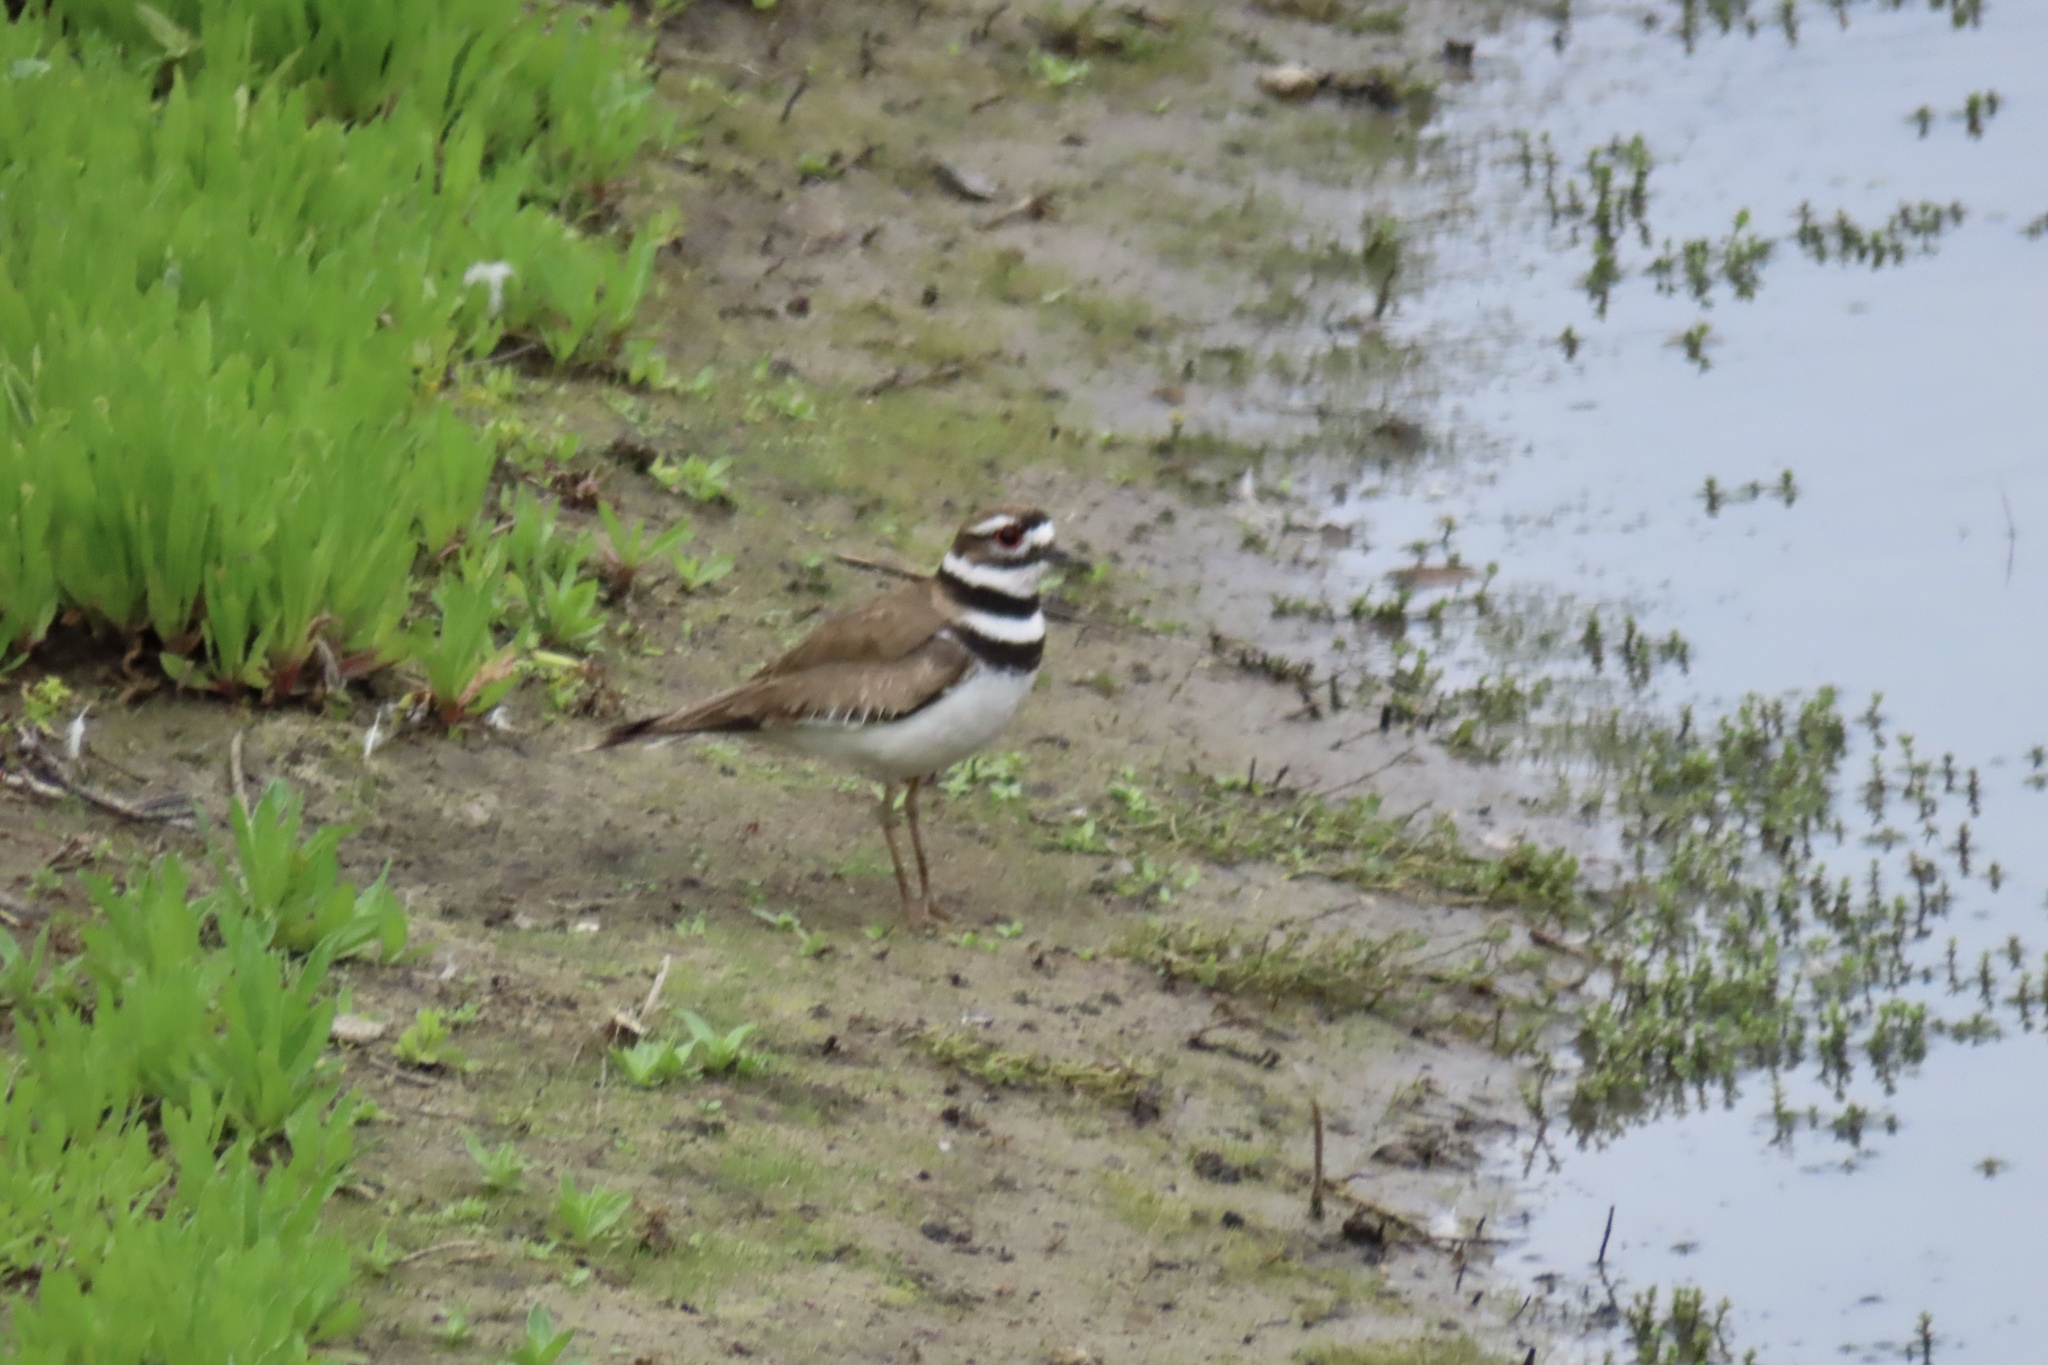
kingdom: Animalia
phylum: Chordata
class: Aves
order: Charadriiformes
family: Charadriidae
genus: Charadrius
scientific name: Charadrius vociferus
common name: Killdeer
